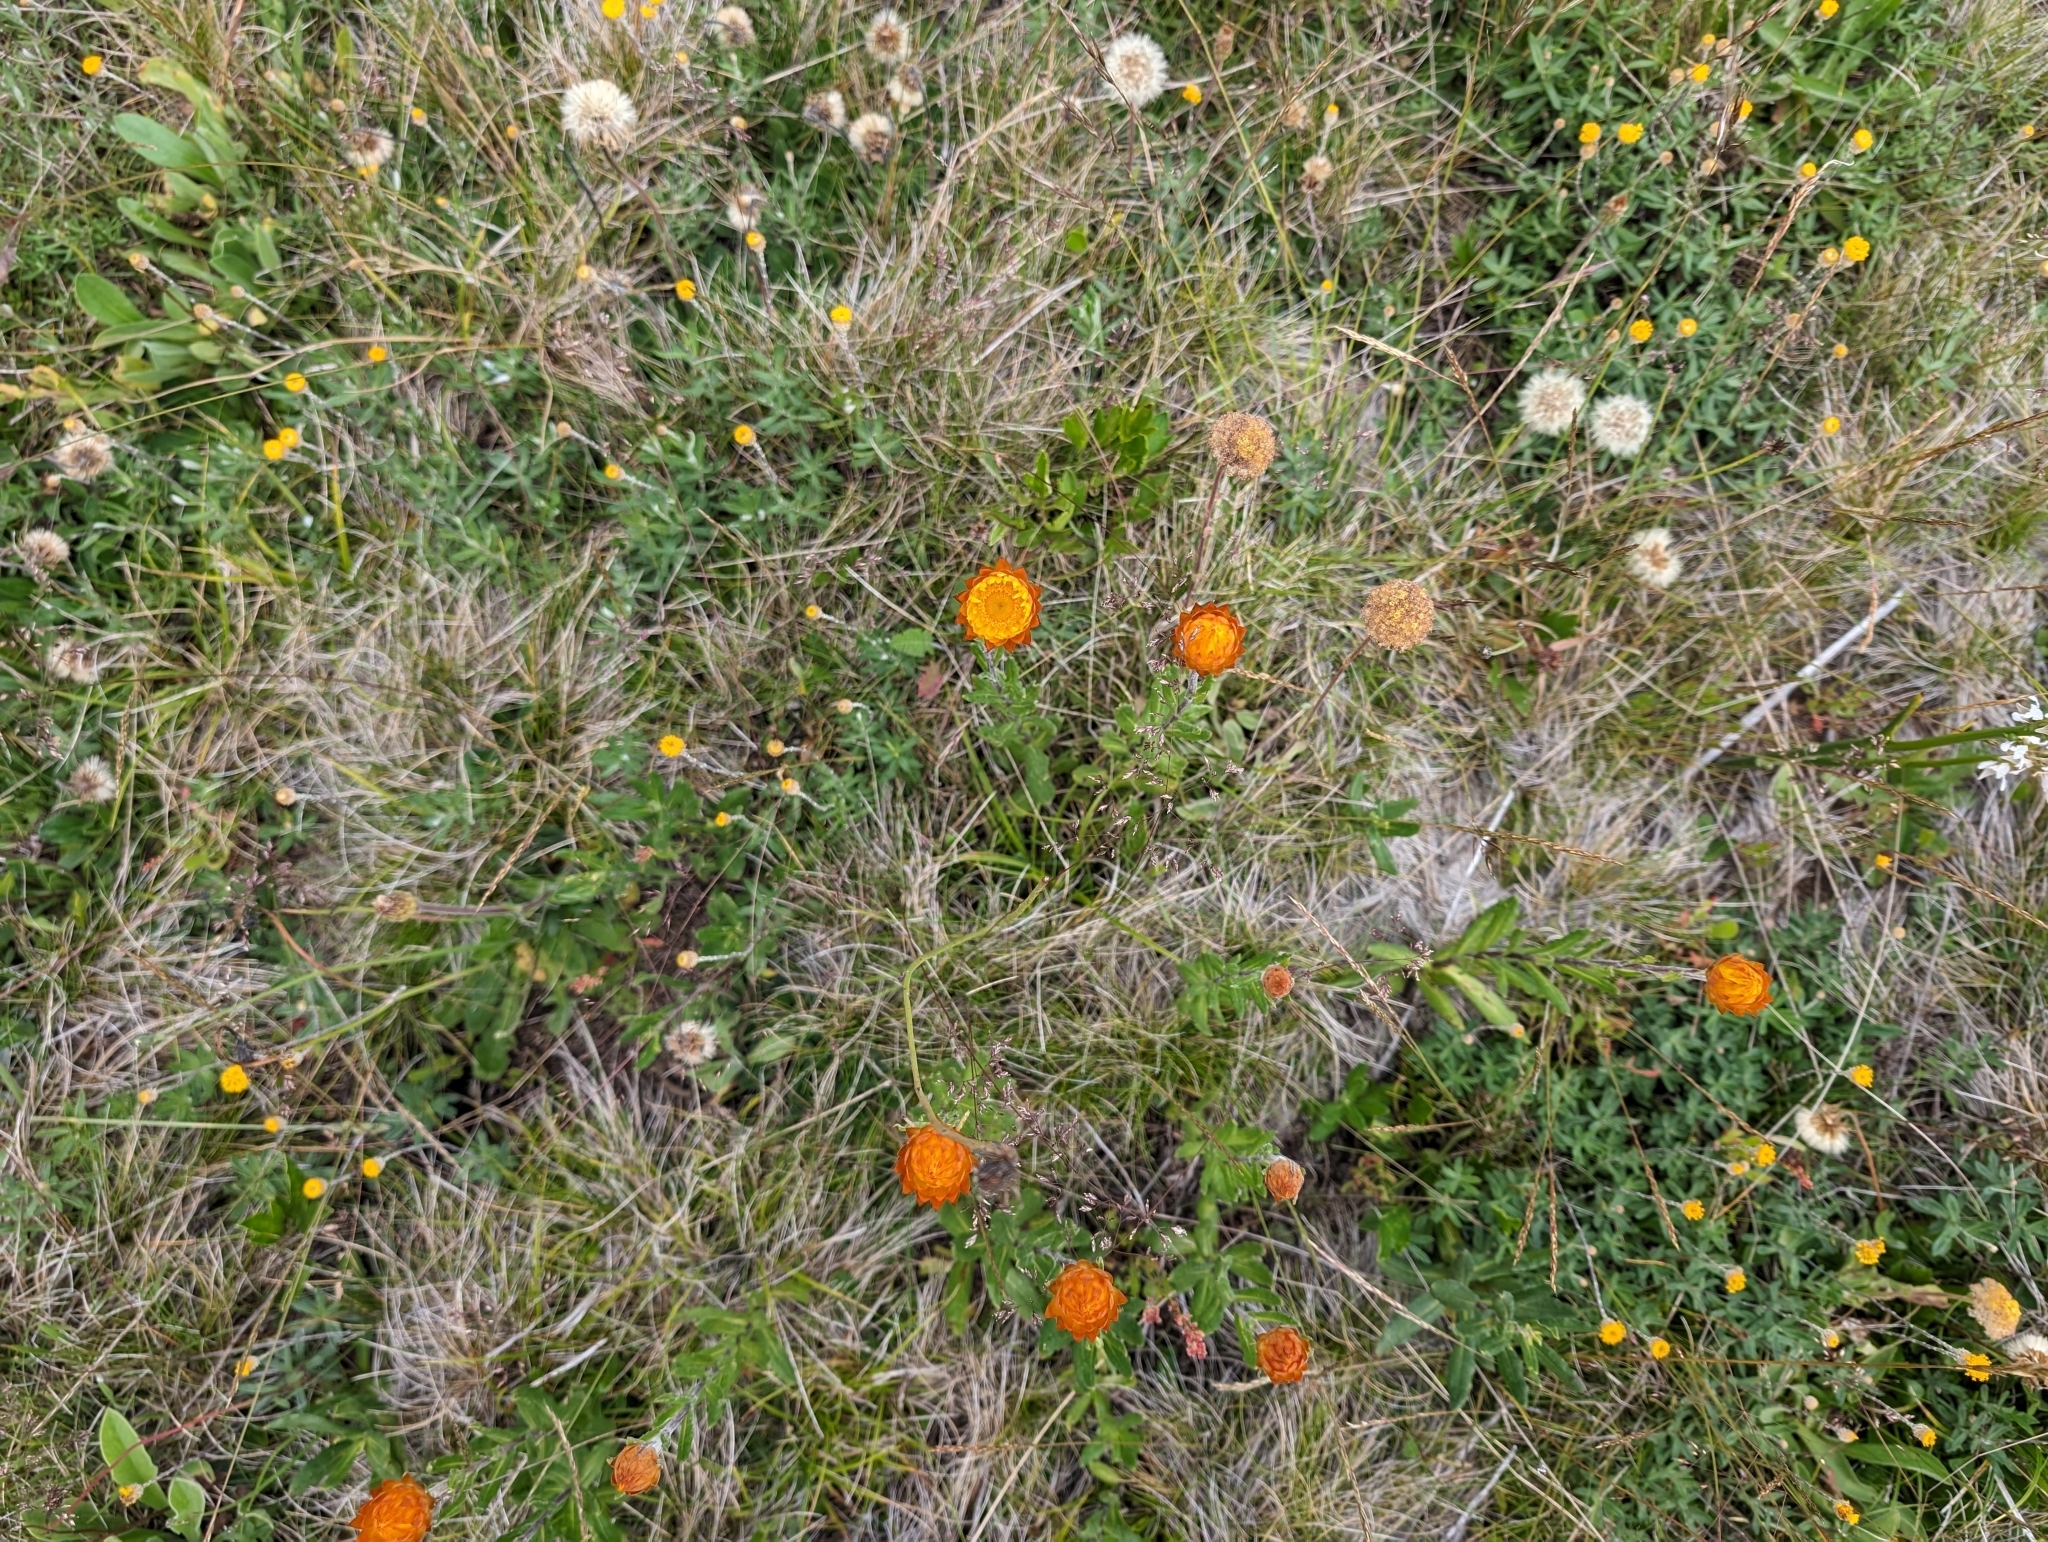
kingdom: Plantae
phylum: Tracheophyta
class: Magnoliopsida
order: Asterales
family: Asteraceae
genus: Xerochrysum
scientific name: Xerochrysum subundulatum
